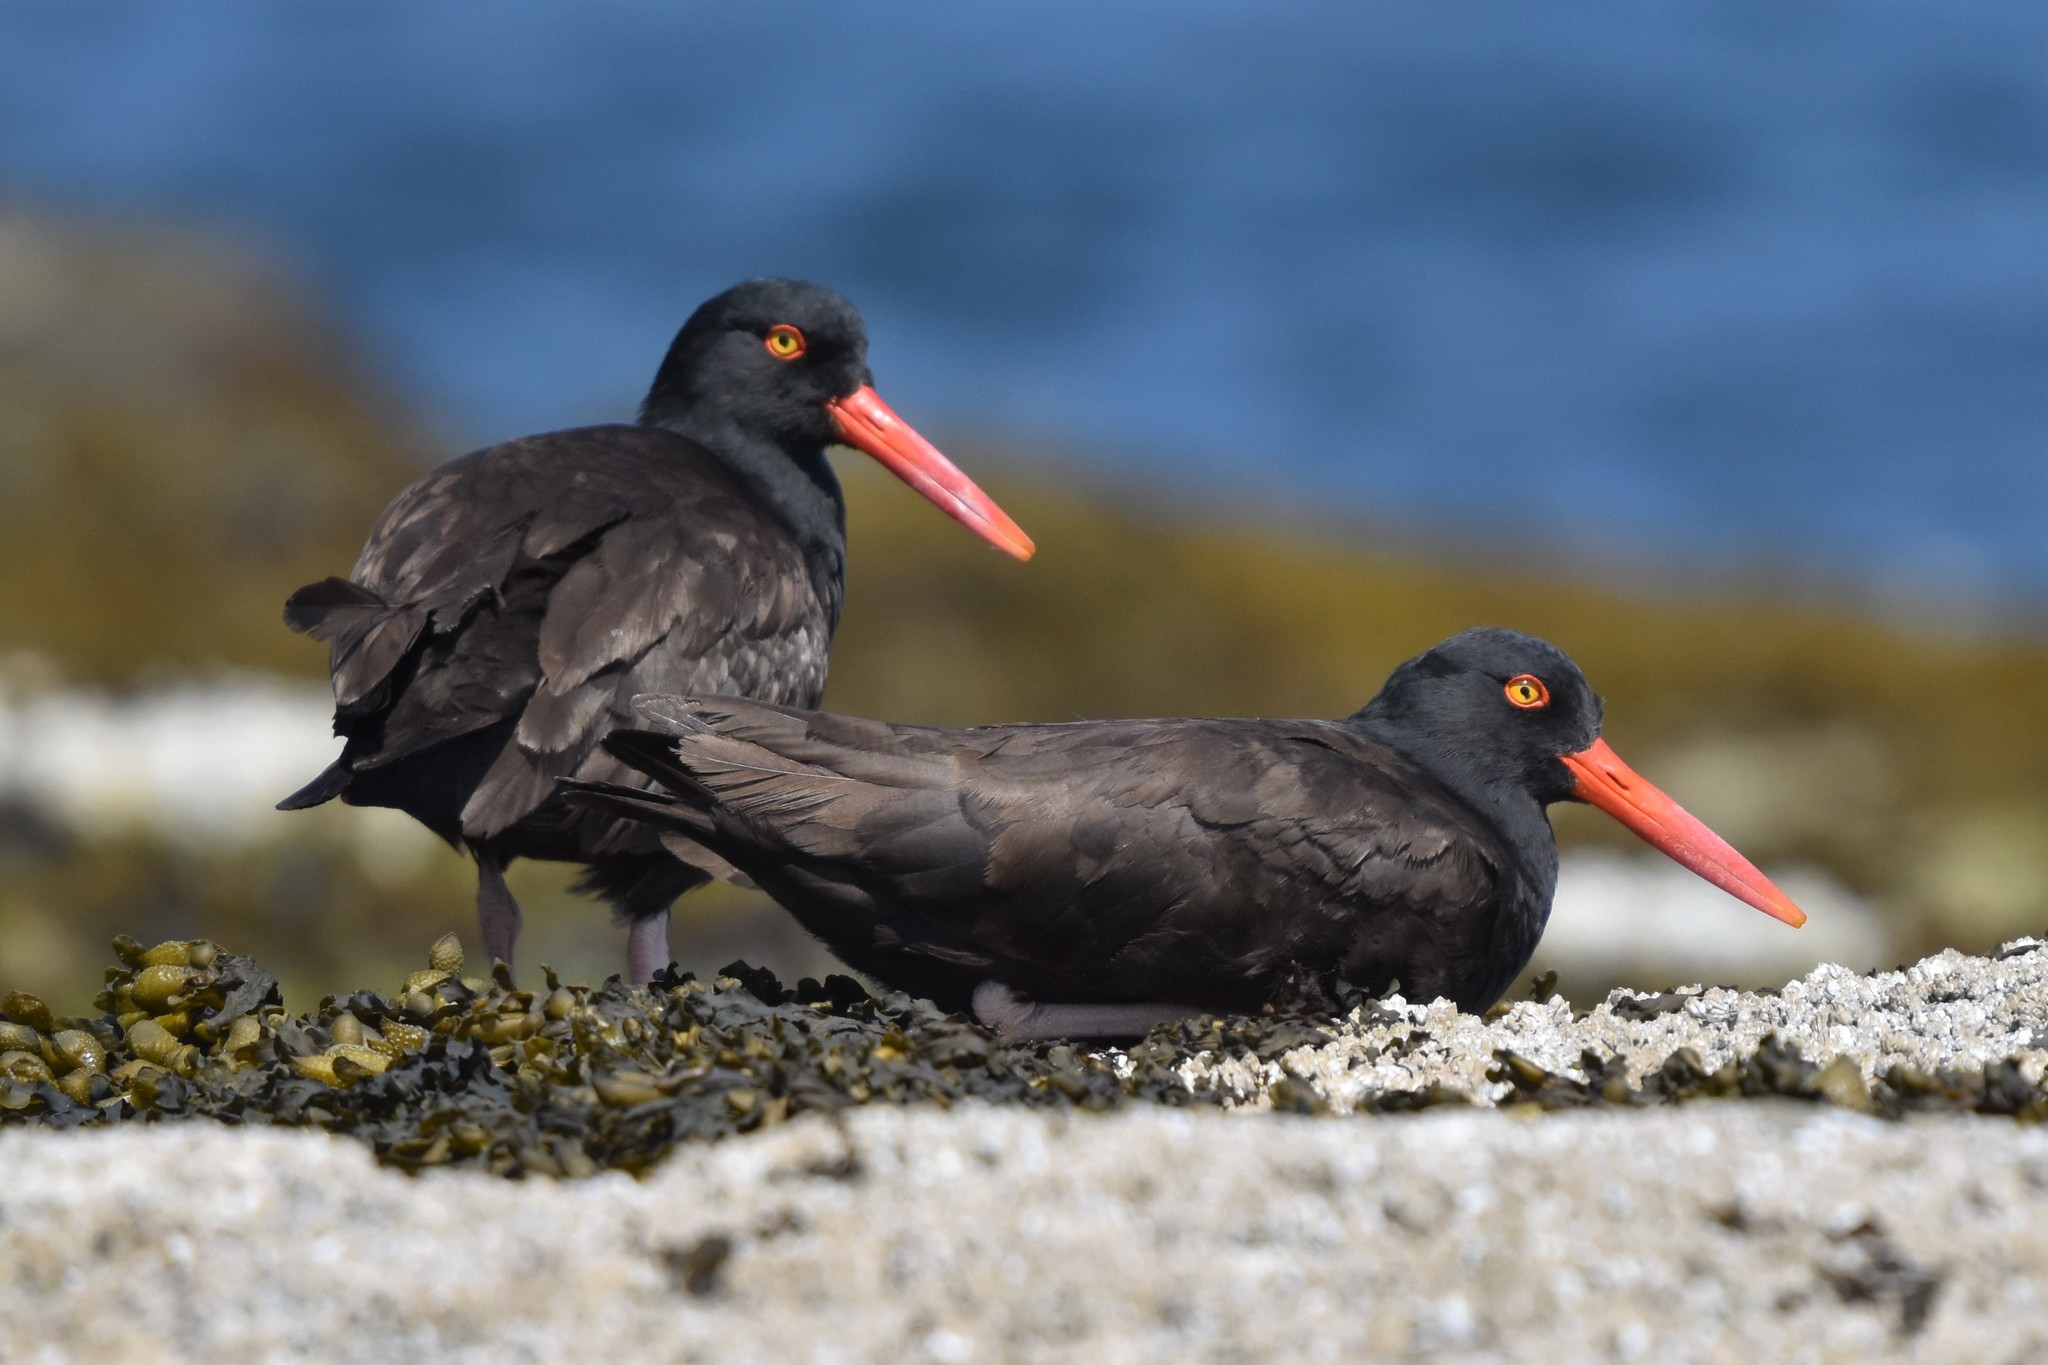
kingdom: Animalia
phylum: Chordata
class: Aves
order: Charadriiformes
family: Haematopodidae
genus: Haematopus
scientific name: Haematopus bachmani
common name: Black oystercatcher
